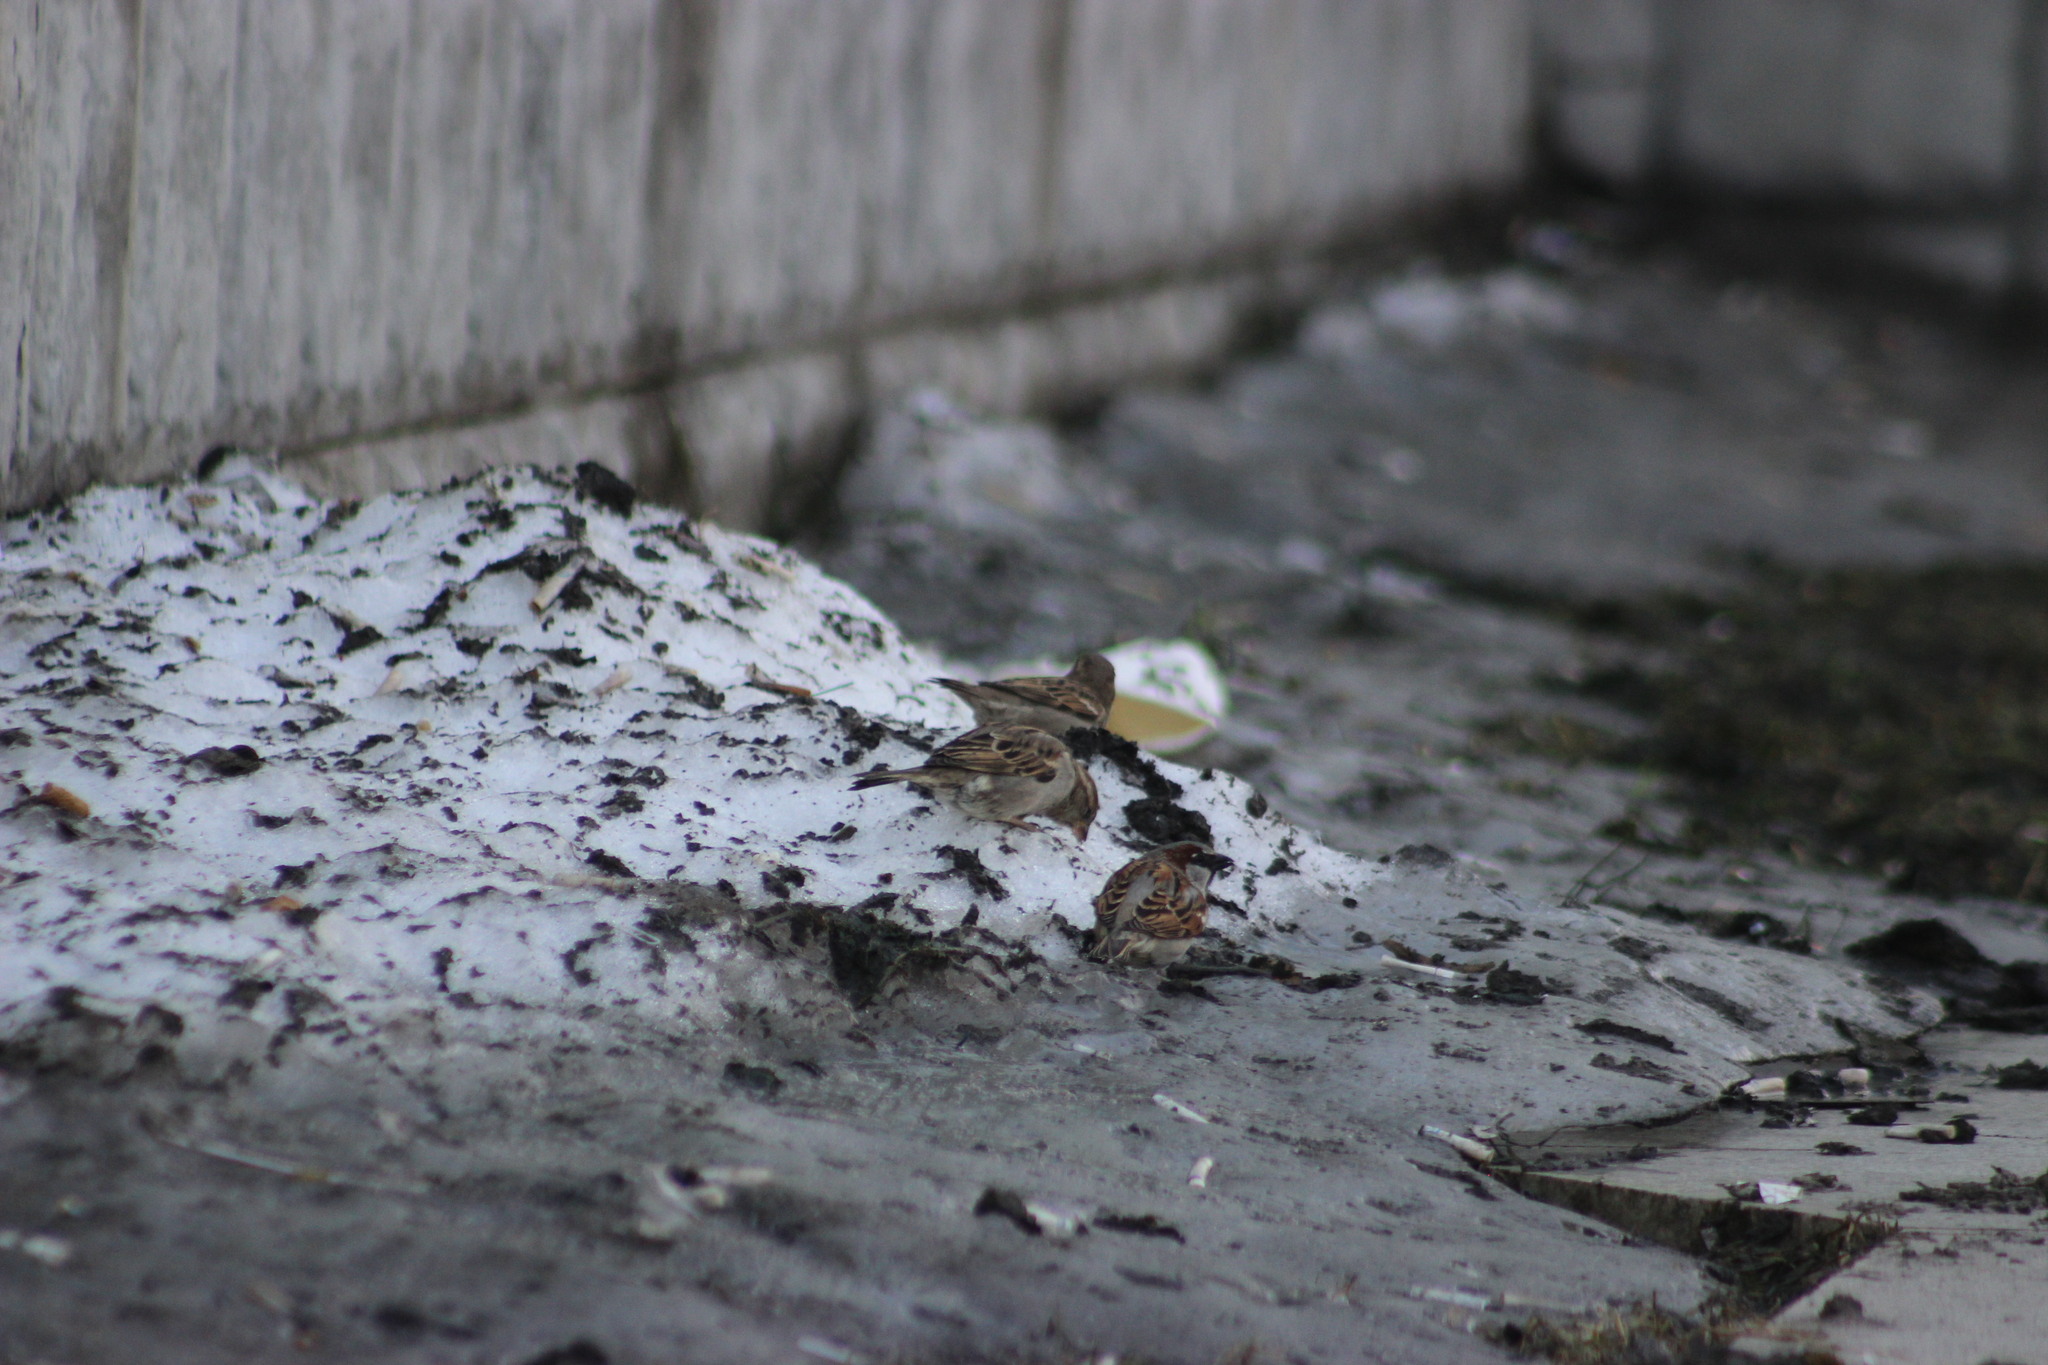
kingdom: Animalia
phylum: Chordata
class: Aves
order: Passeriformes
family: Passeridae
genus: Passer
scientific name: Passer domesticus
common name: House sparrow
